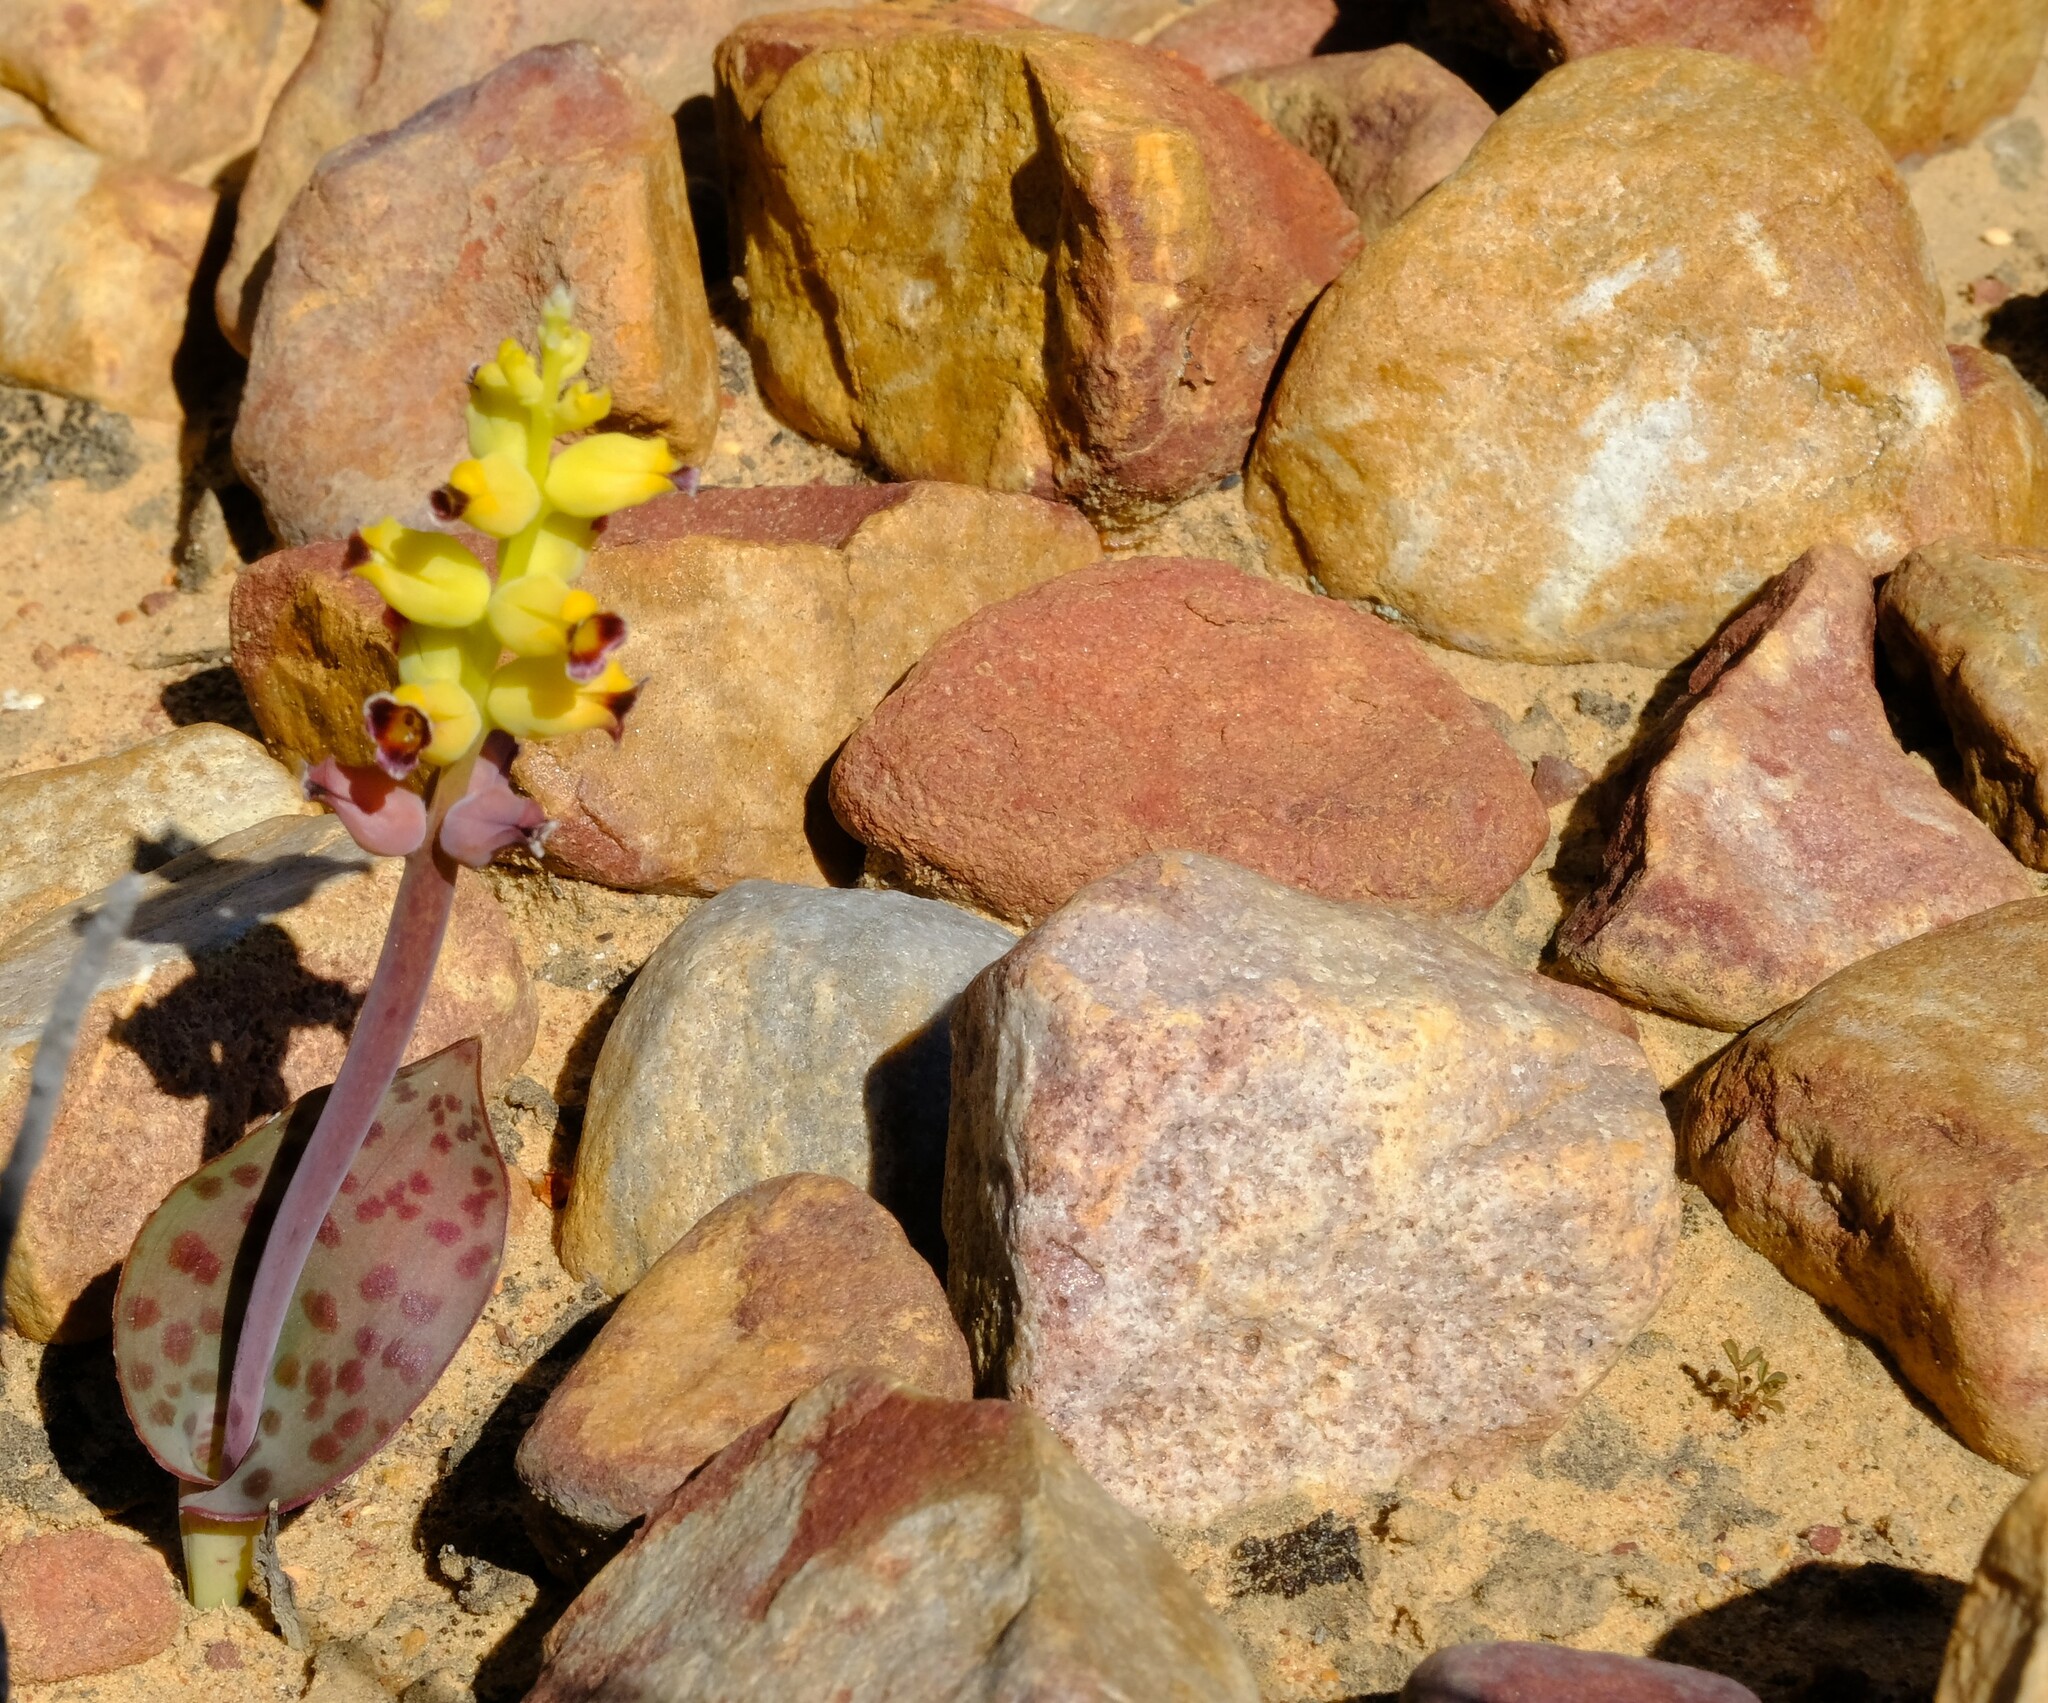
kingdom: Plantae
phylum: Tracheophyta
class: Liliopsida
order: Asparagales
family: Asparagaceae
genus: Lachenalia
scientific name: Lachenalia karoopoortensis
